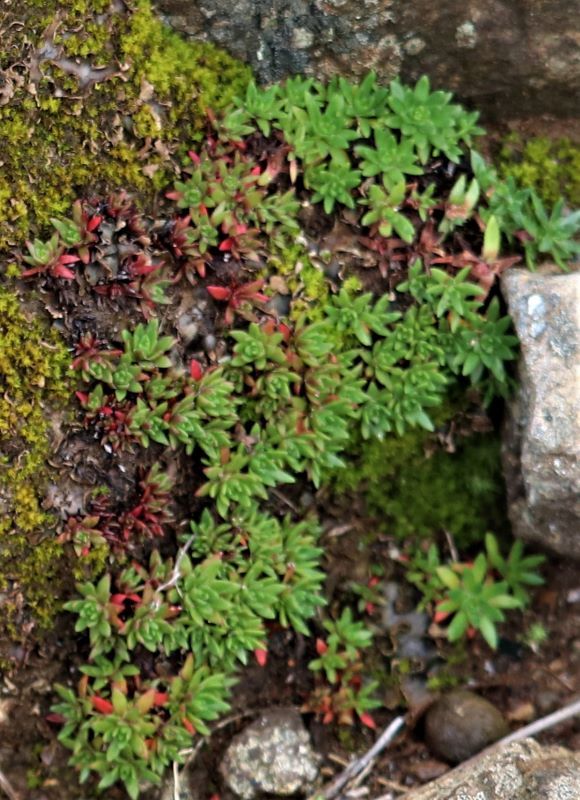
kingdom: Plantae
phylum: Tracheophyta
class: Magnoliopsida
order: Saxifragales
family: Crassulaceae
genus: Crassula
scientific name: Crassula setulosa
